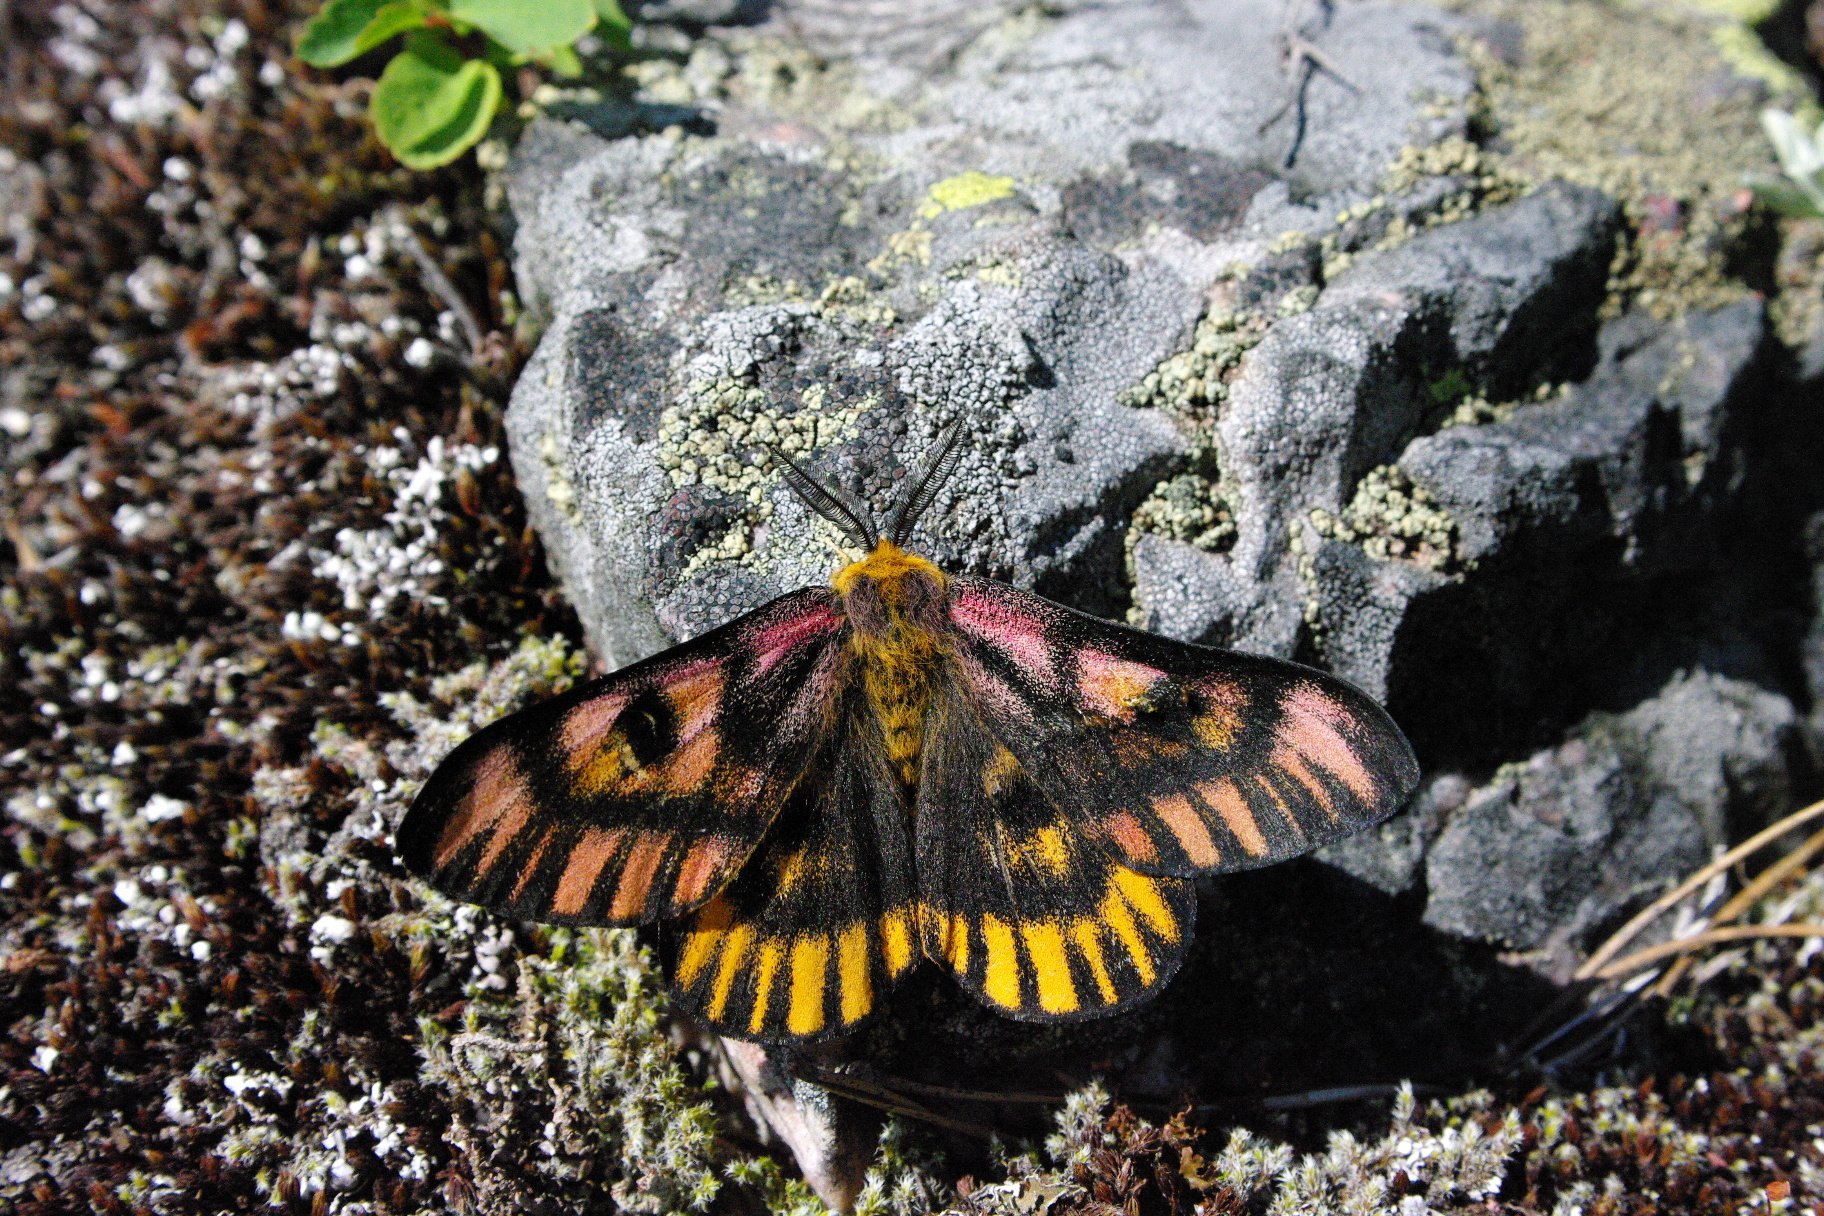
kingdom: Animalia
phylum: Arthropoda
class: Insecta
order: Lepidoptera
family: Saturniidae
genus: Hemileuca
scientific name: Hemileuca eglanterina
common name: Western sheepmoth
